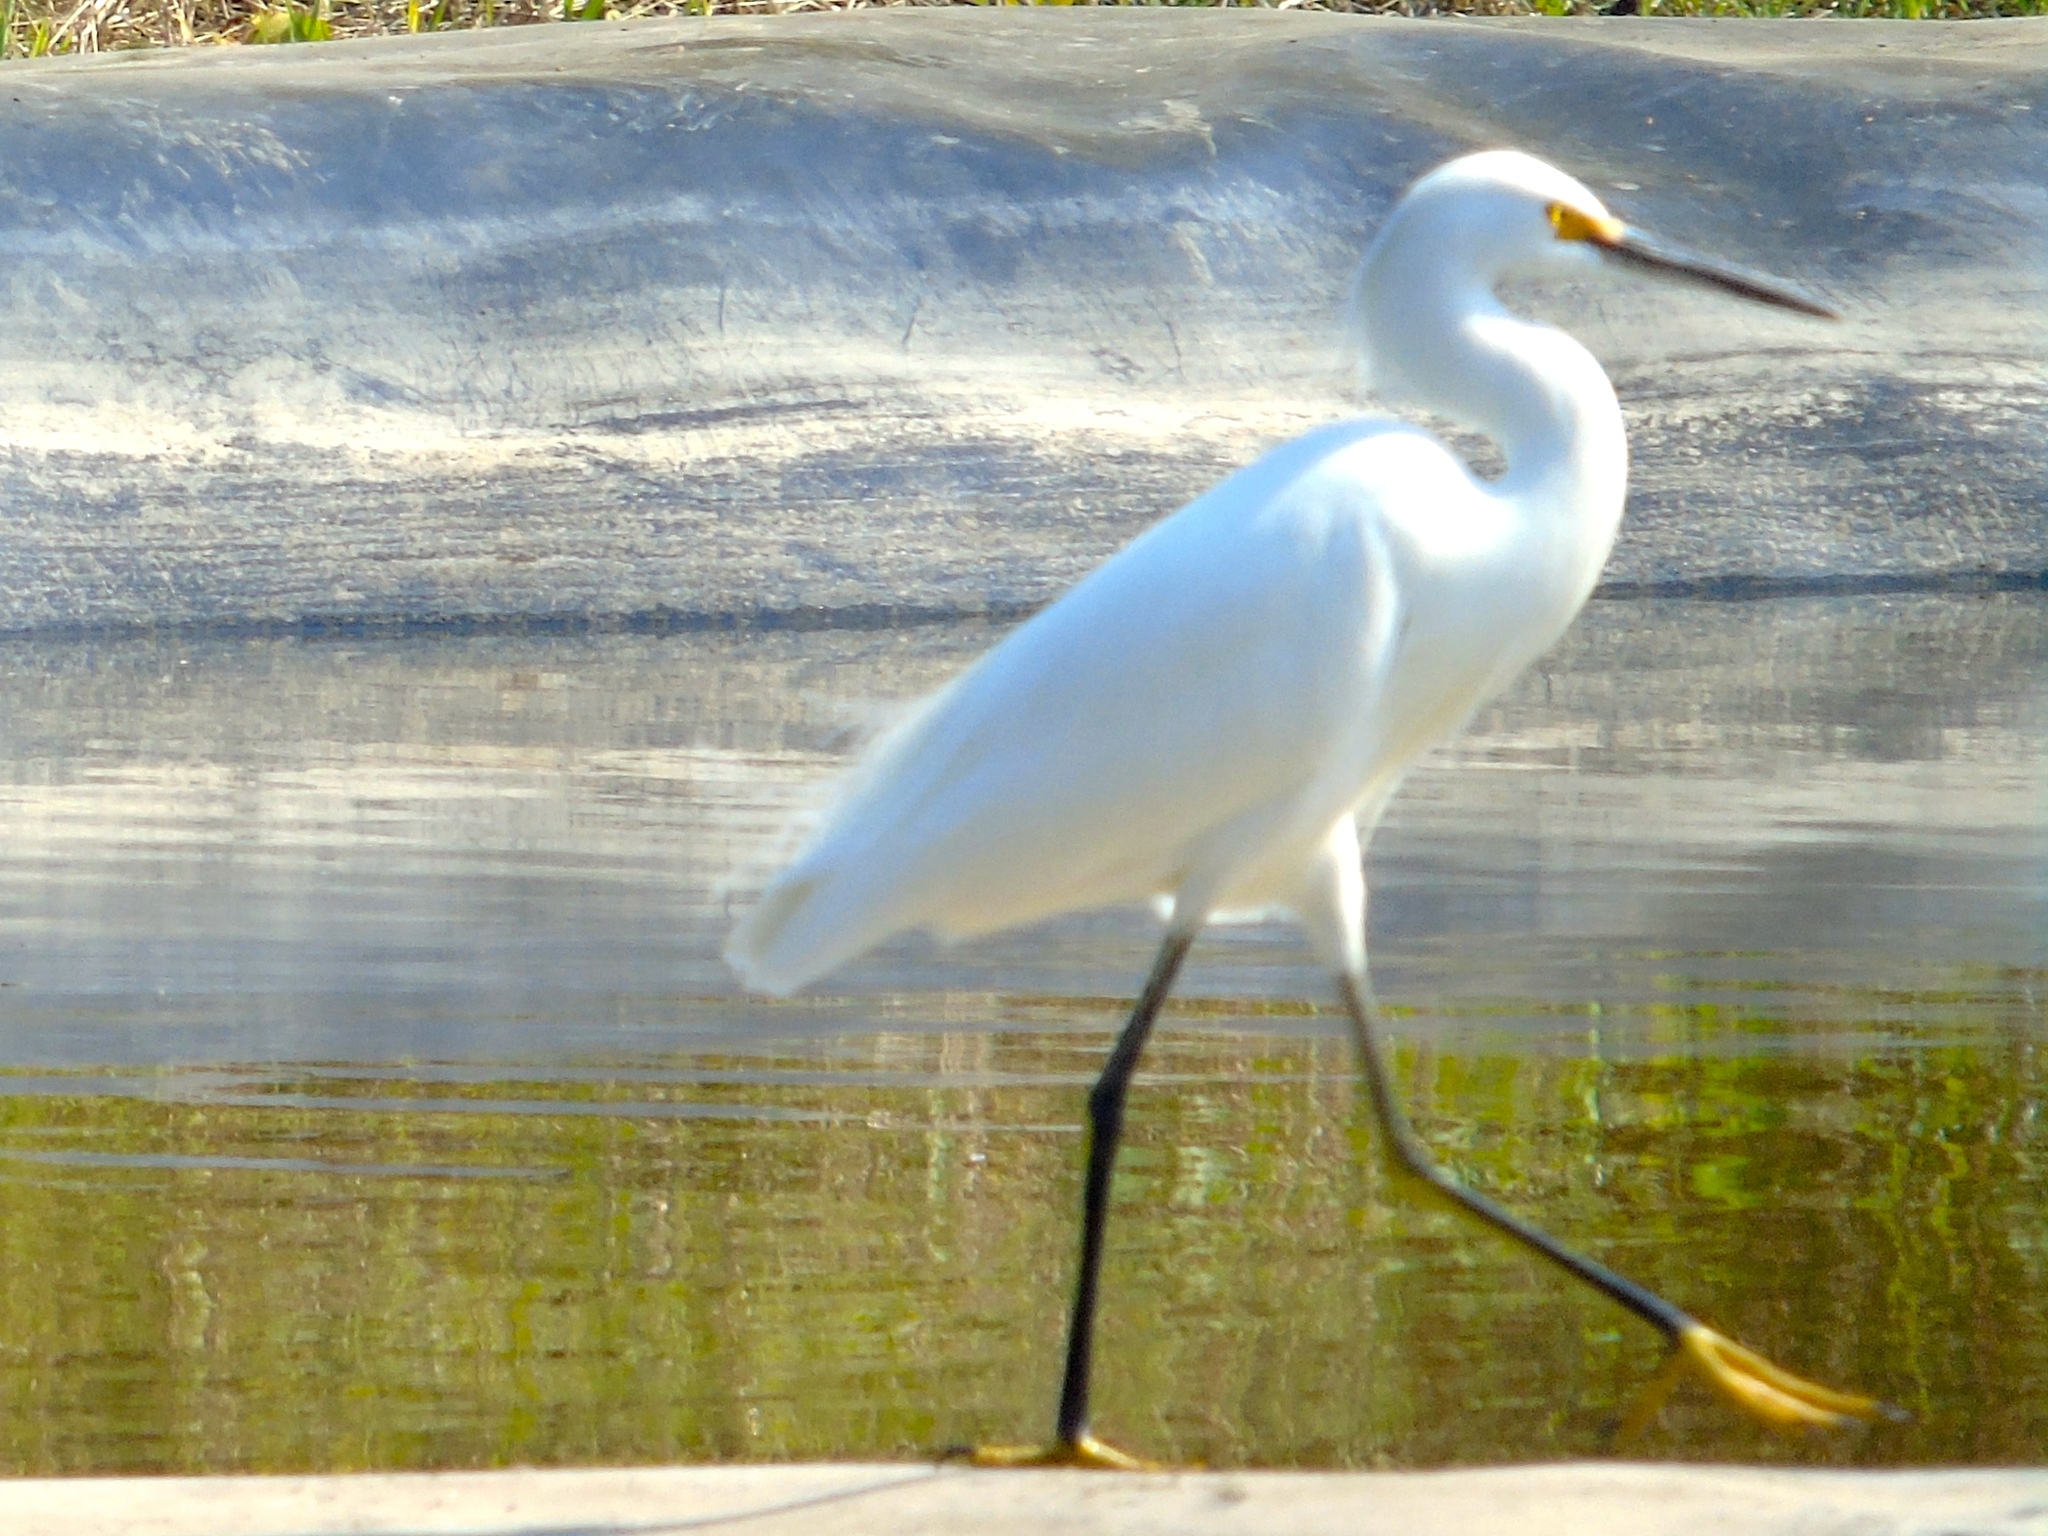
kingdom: Animalia
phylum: Chordata
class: Aves
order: Pelecaniformes
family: Ardeidae
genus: Egretta
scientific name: Egretta thula
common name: Snowy egret
